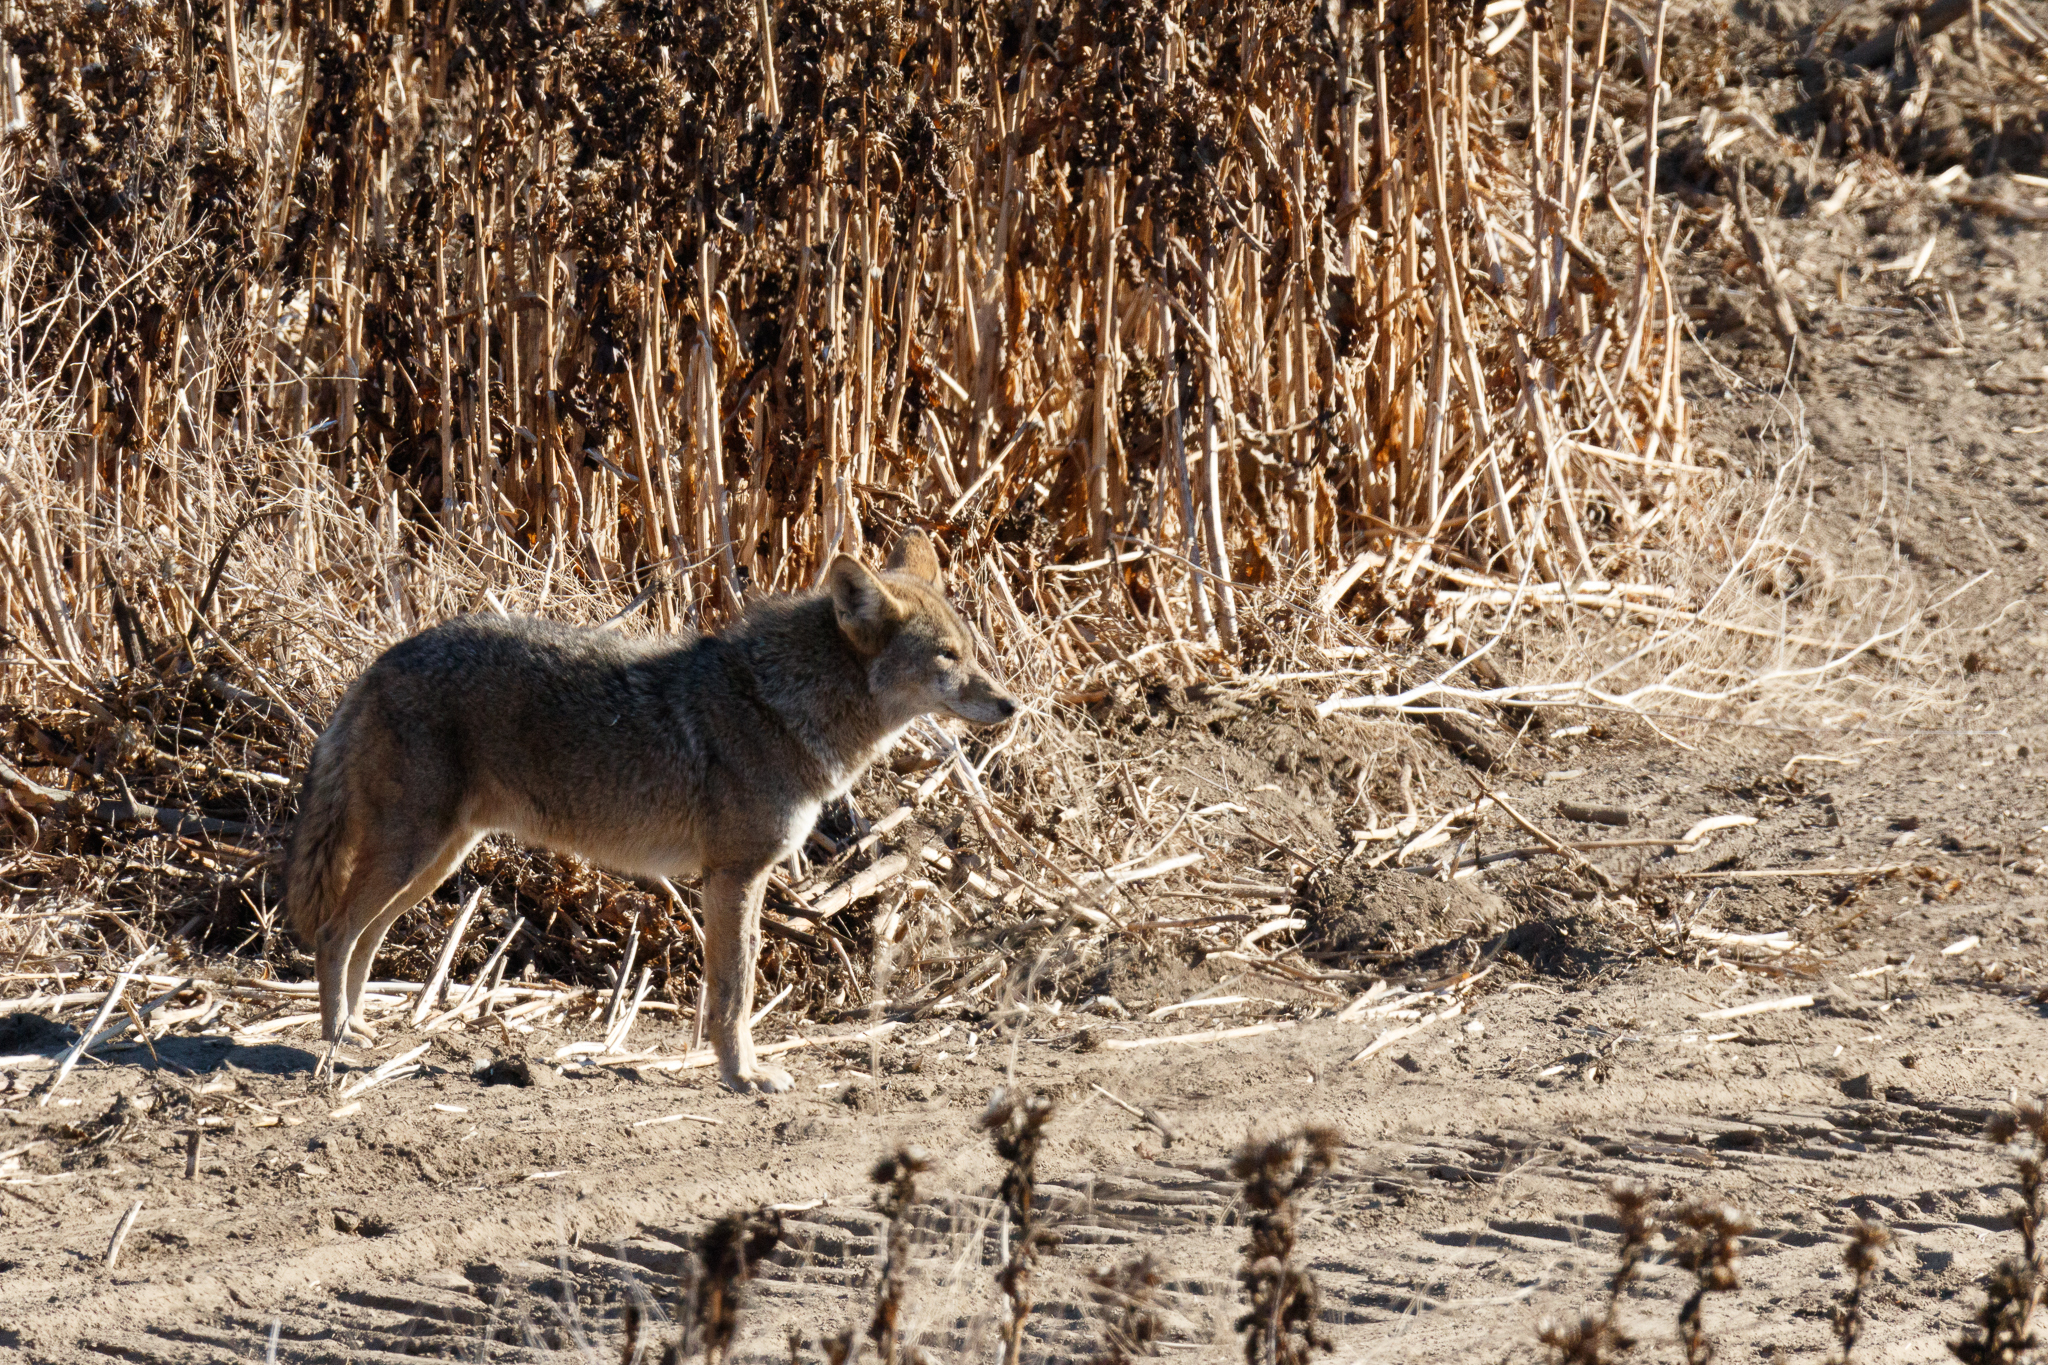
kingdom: Animalia
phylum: Chordata
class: Mammalia
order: Carnivora
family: Canidae
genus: Canis
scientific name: Canis latrans
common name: Coyote
